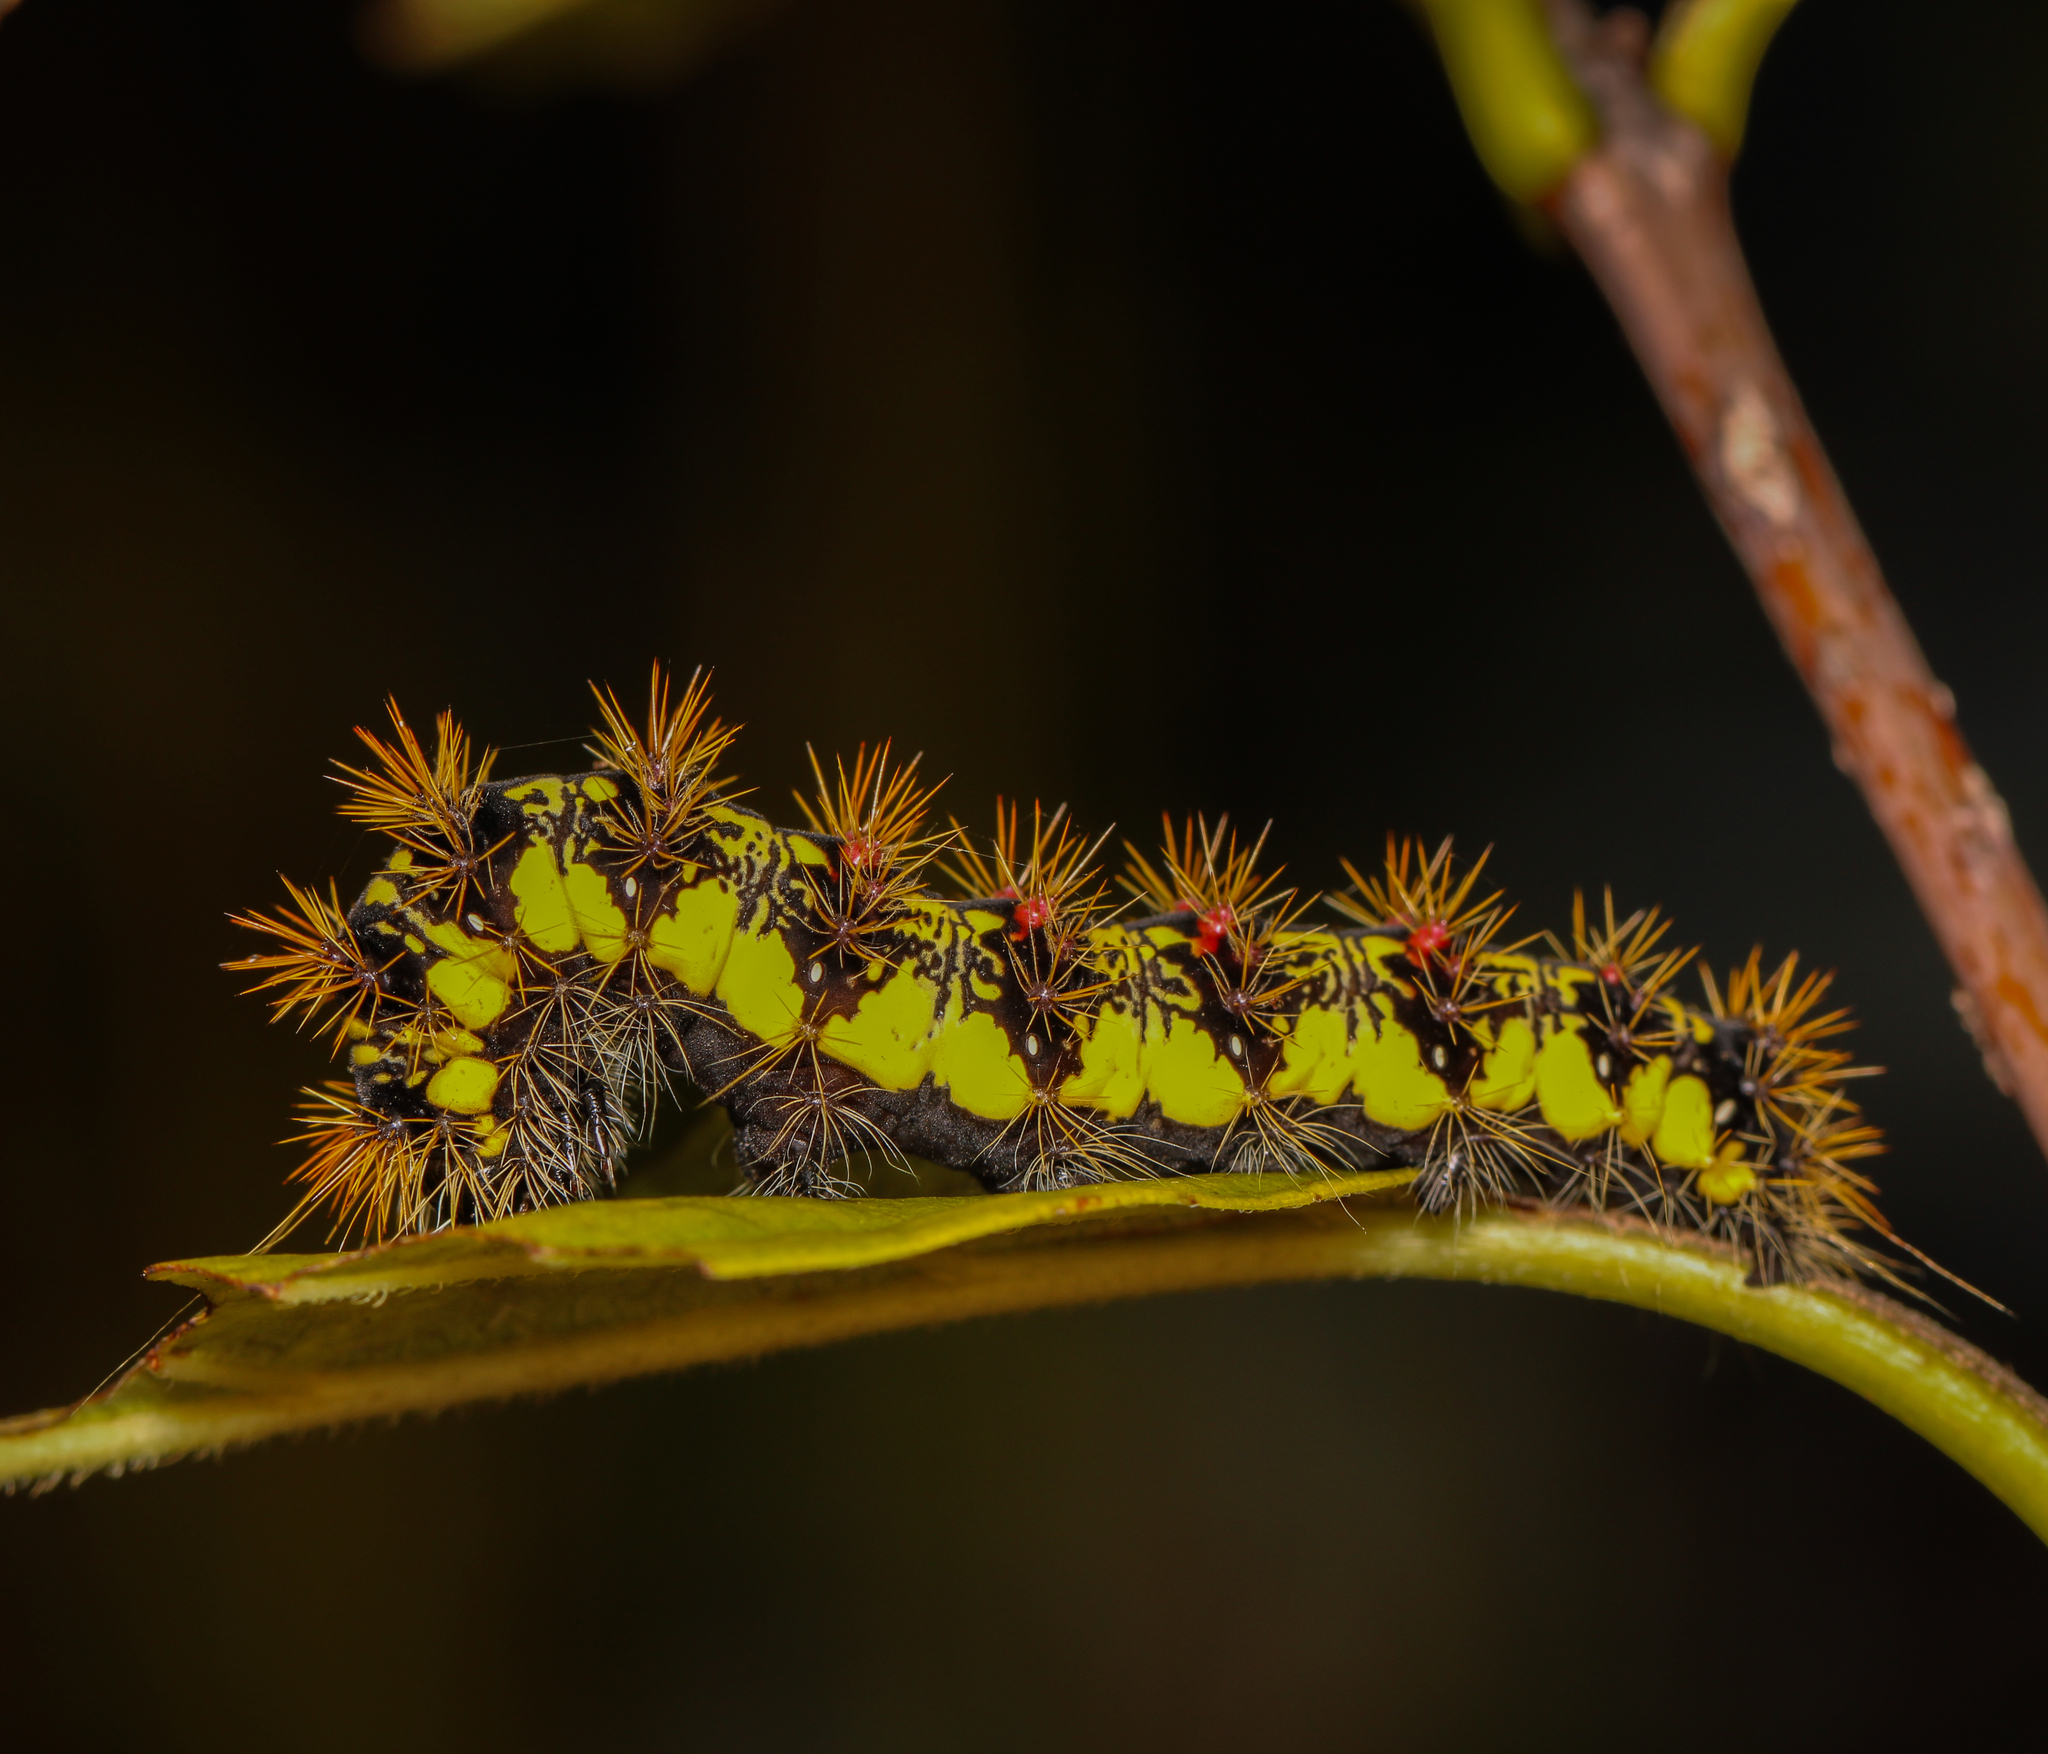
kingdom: Animalia
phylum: Arthropoda
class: Insecta
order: Lepidoptera
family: Noctuidae
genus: Acronicta
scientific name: Acronicta oblinita
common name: Smeared dagger
